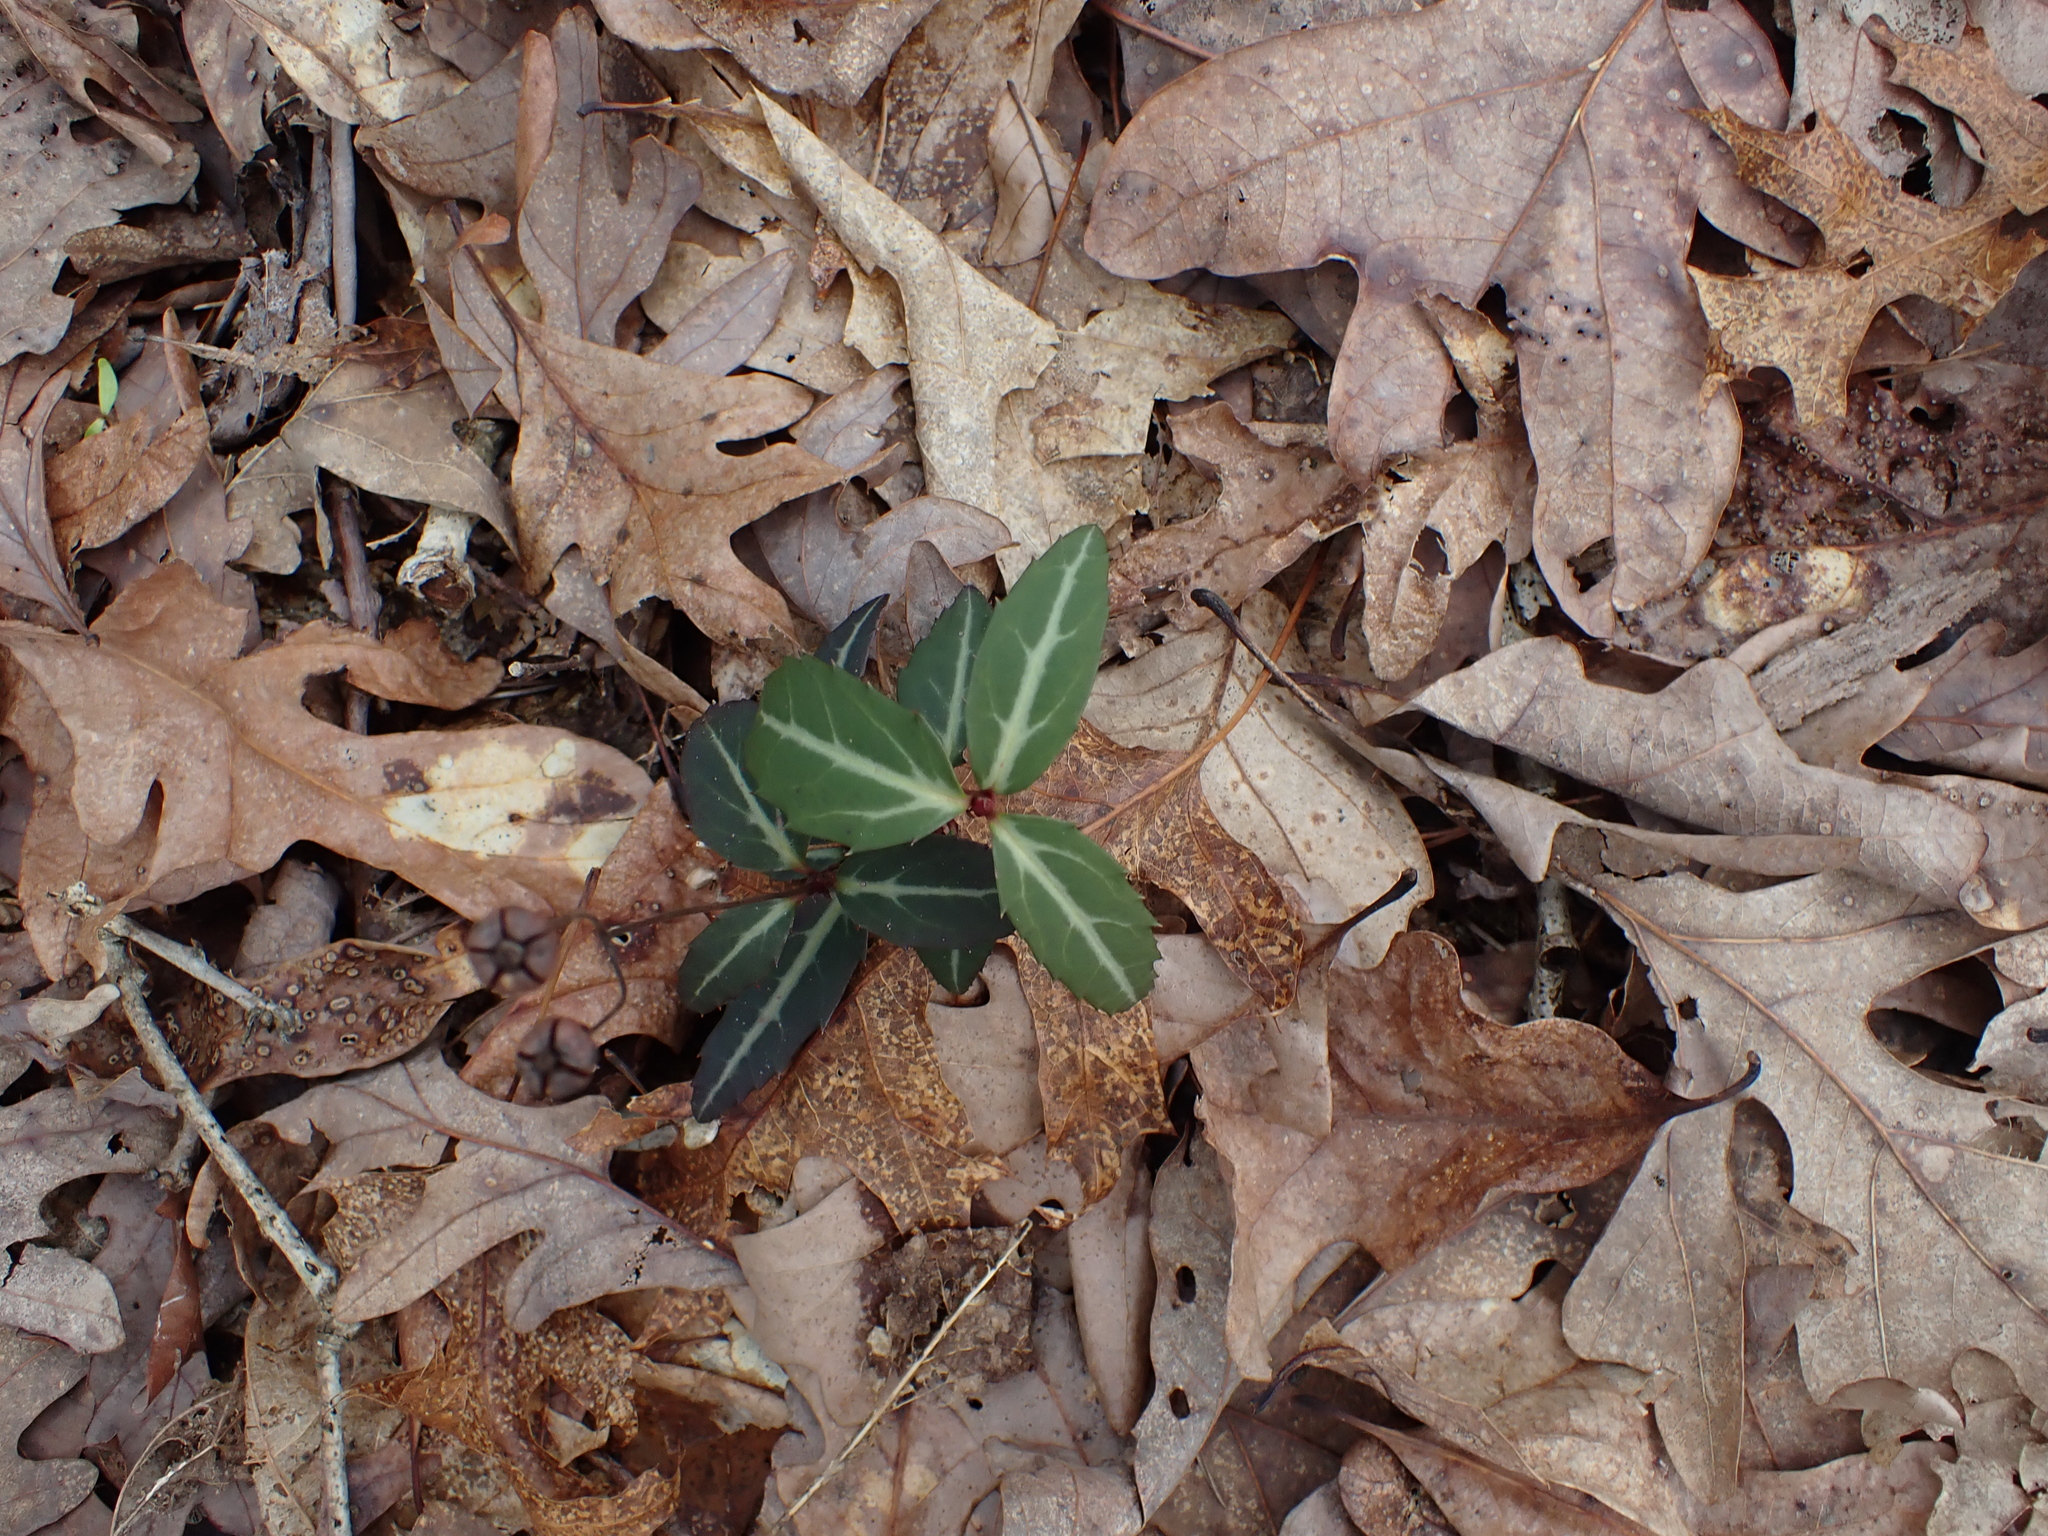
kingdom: Plantae
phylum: Tracheophyta
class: Magnoliopsida
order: Ericales
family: Ericaceae
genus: Chimaphila
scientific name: Chimaphila maculata
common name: Spotted pipsissewa
